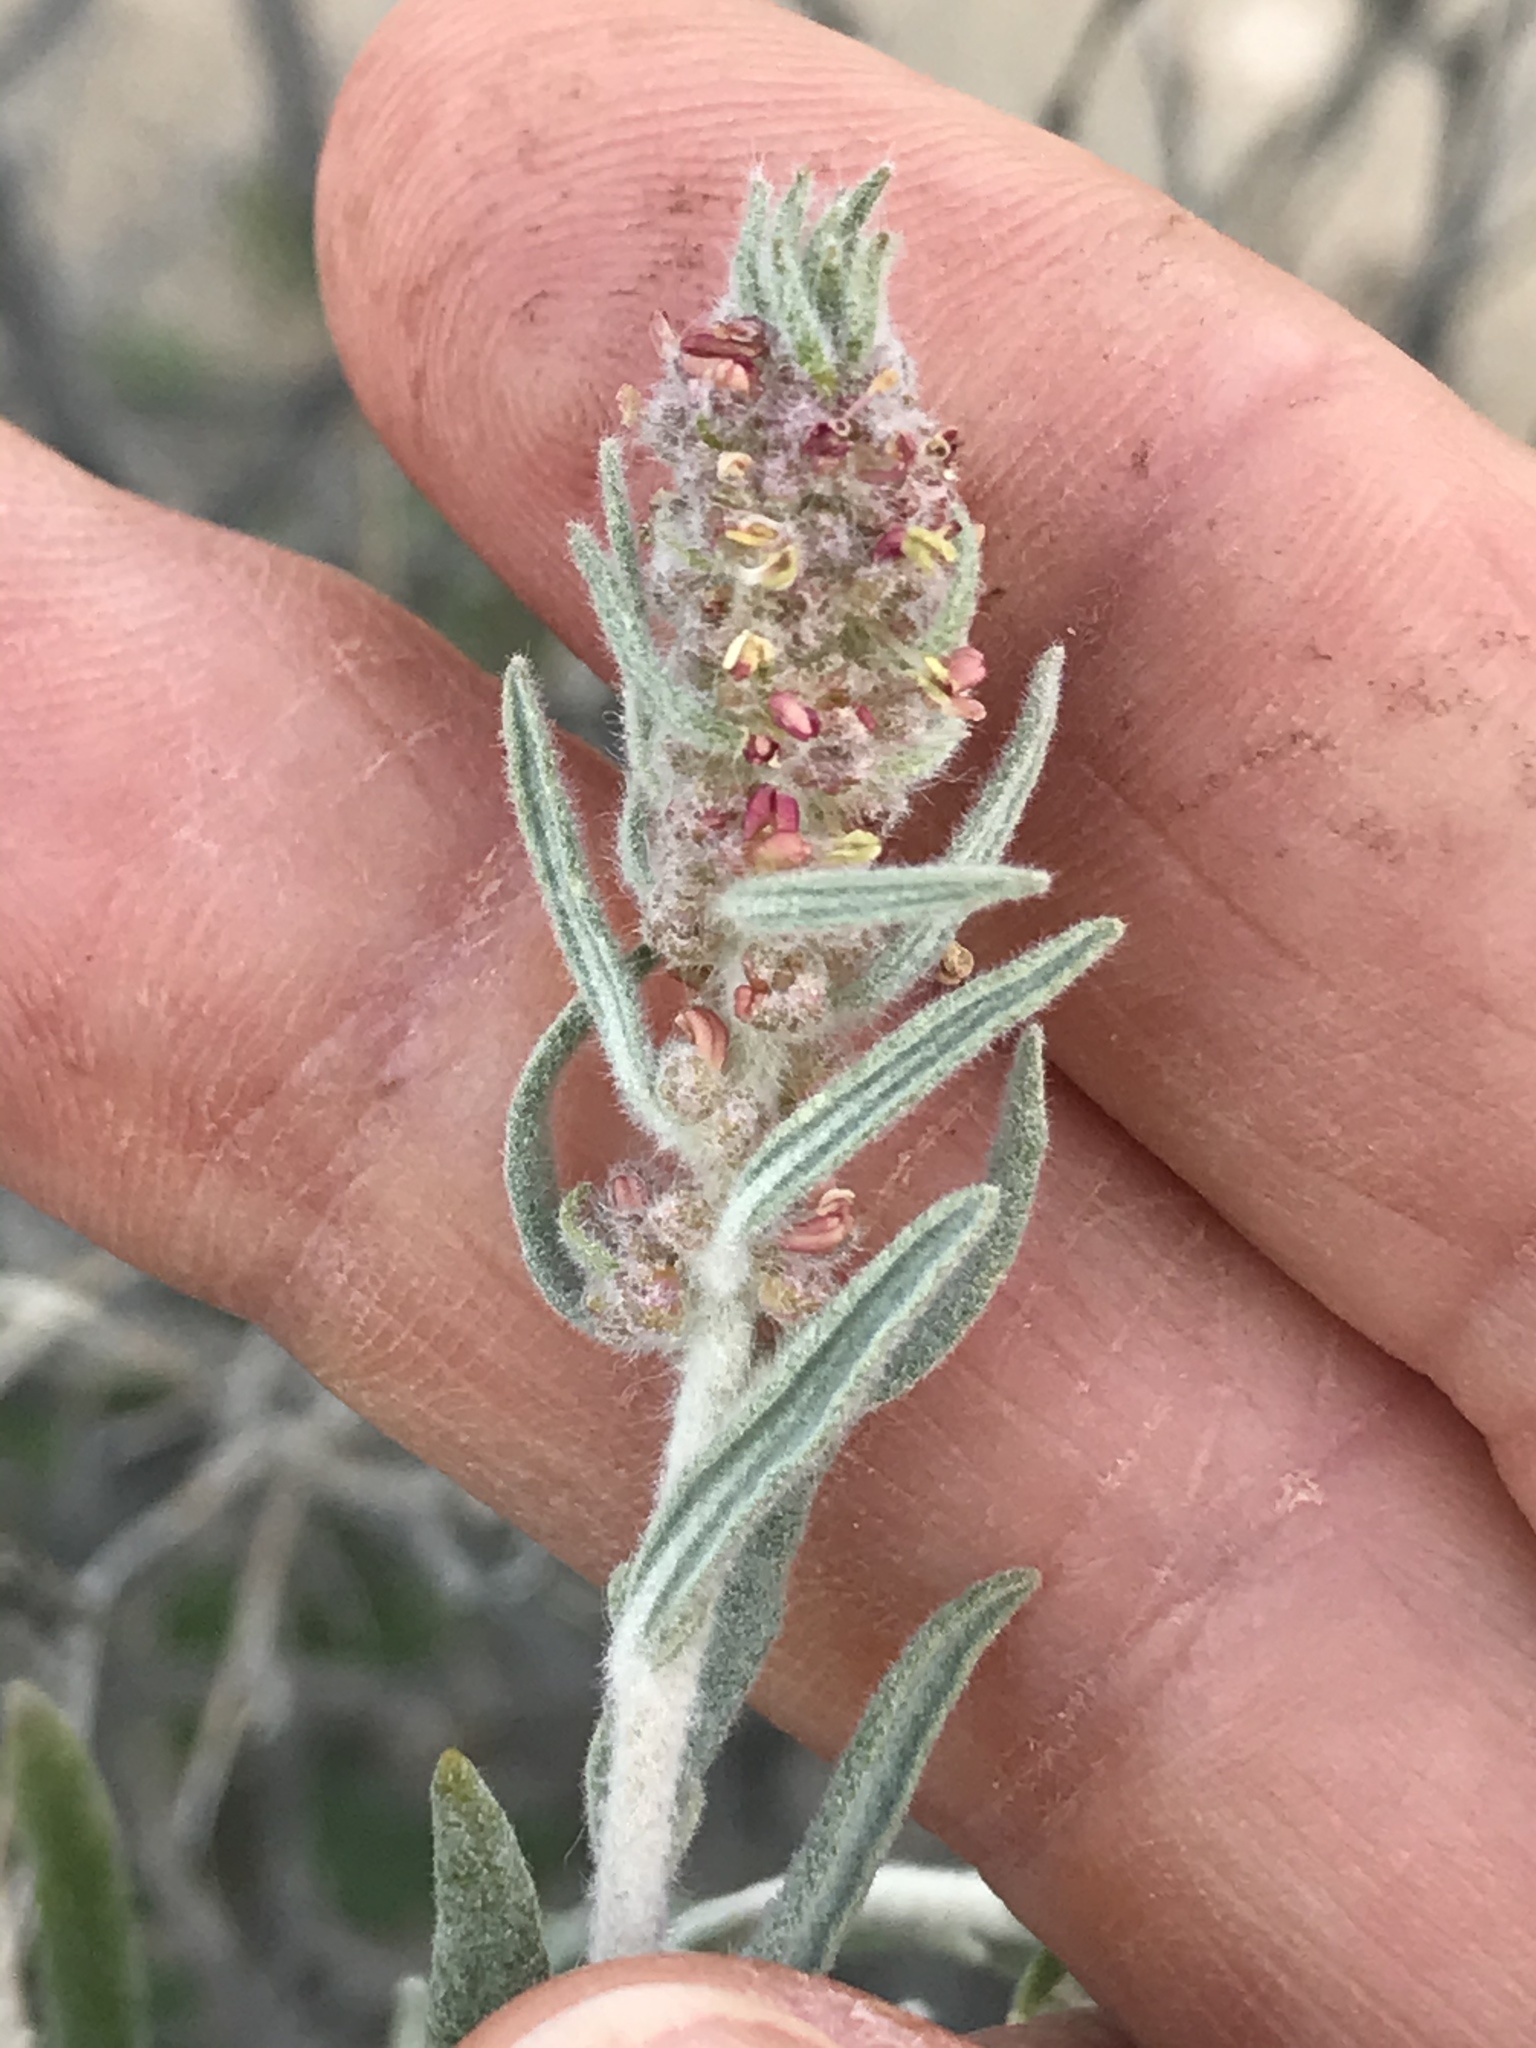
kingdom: Plantae
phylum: Tracheophyta
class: Magnoliopsida
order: Caryophyllales
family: Amaranthaceae
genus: Krascheninnikovia
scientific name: Krascheninnikovia lanata
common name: Winterfat
